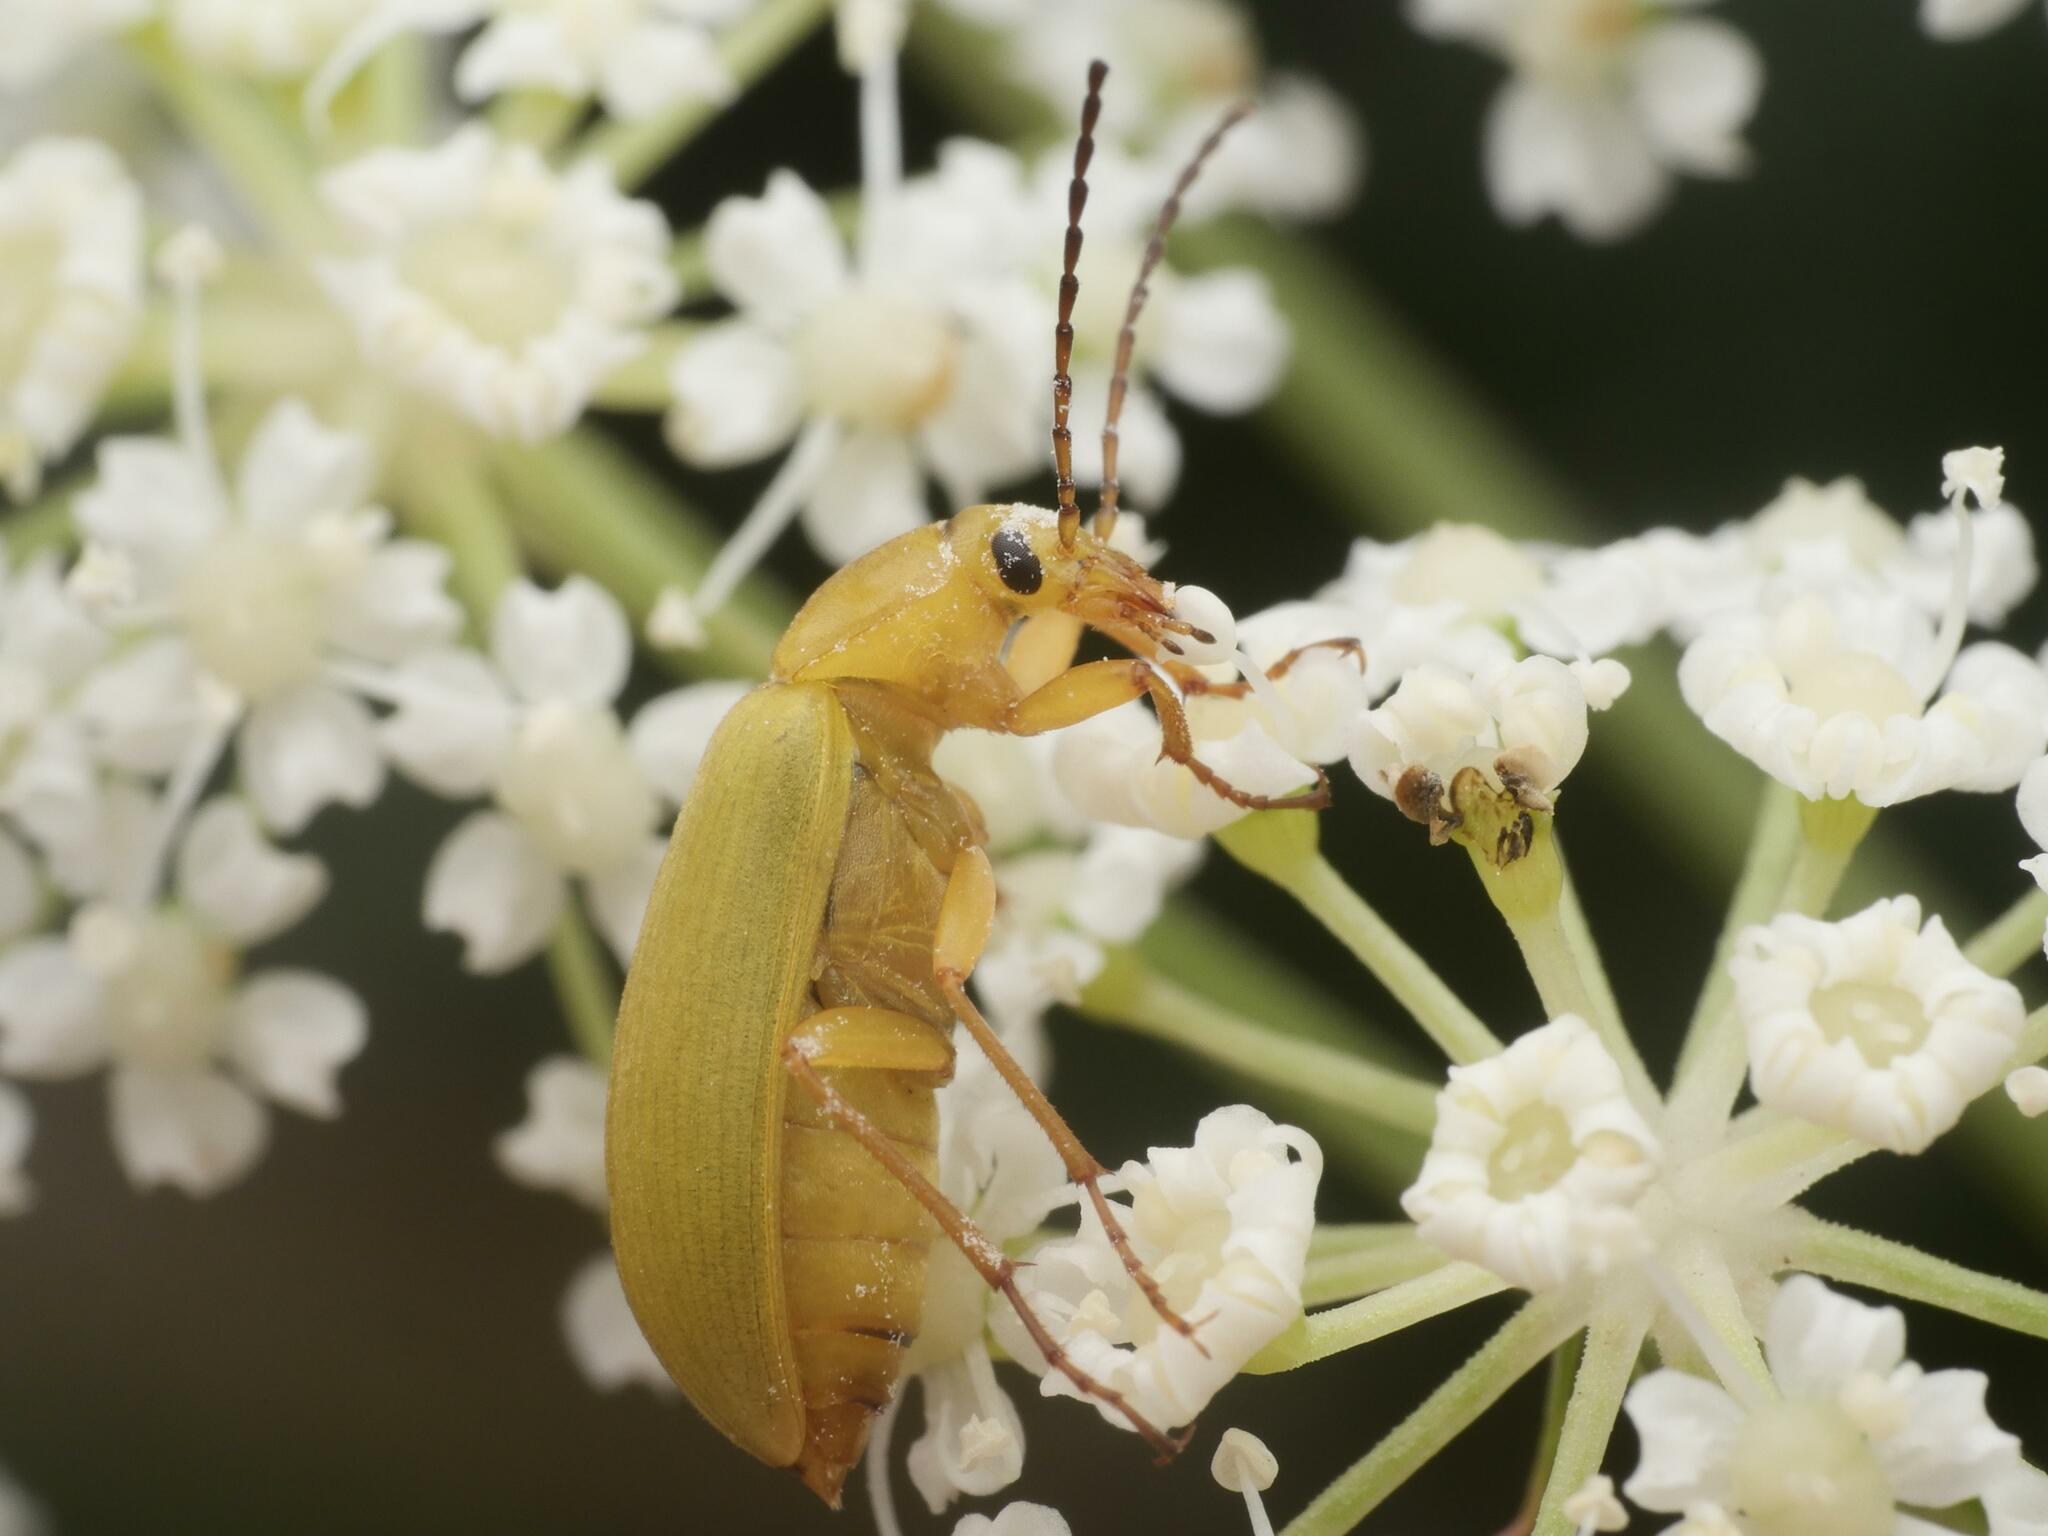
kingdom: Animalia
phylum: Arthropoda
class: Insecta
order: Coleoptera
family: Tenebrionidae
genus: Cteniopus
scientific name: Cteniopus sulphureus
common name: Sulphur beetle
